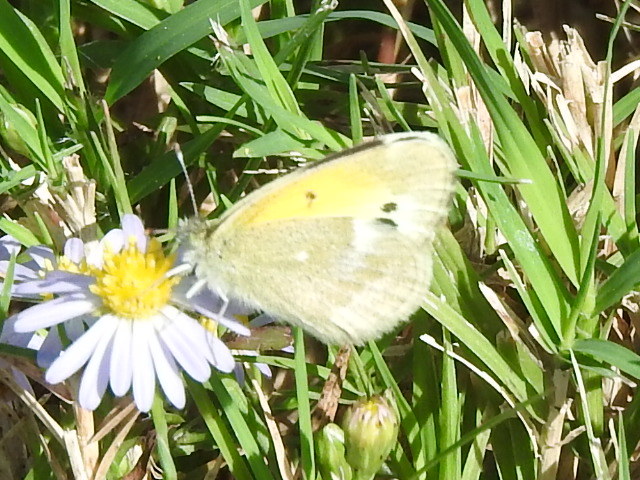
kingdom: Animalia
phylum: Arthropoda
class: Insecta
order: Lepidoptera
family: Pieridae
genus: Nathalis
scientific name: Nathalis iole
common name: Dainty sulphur
